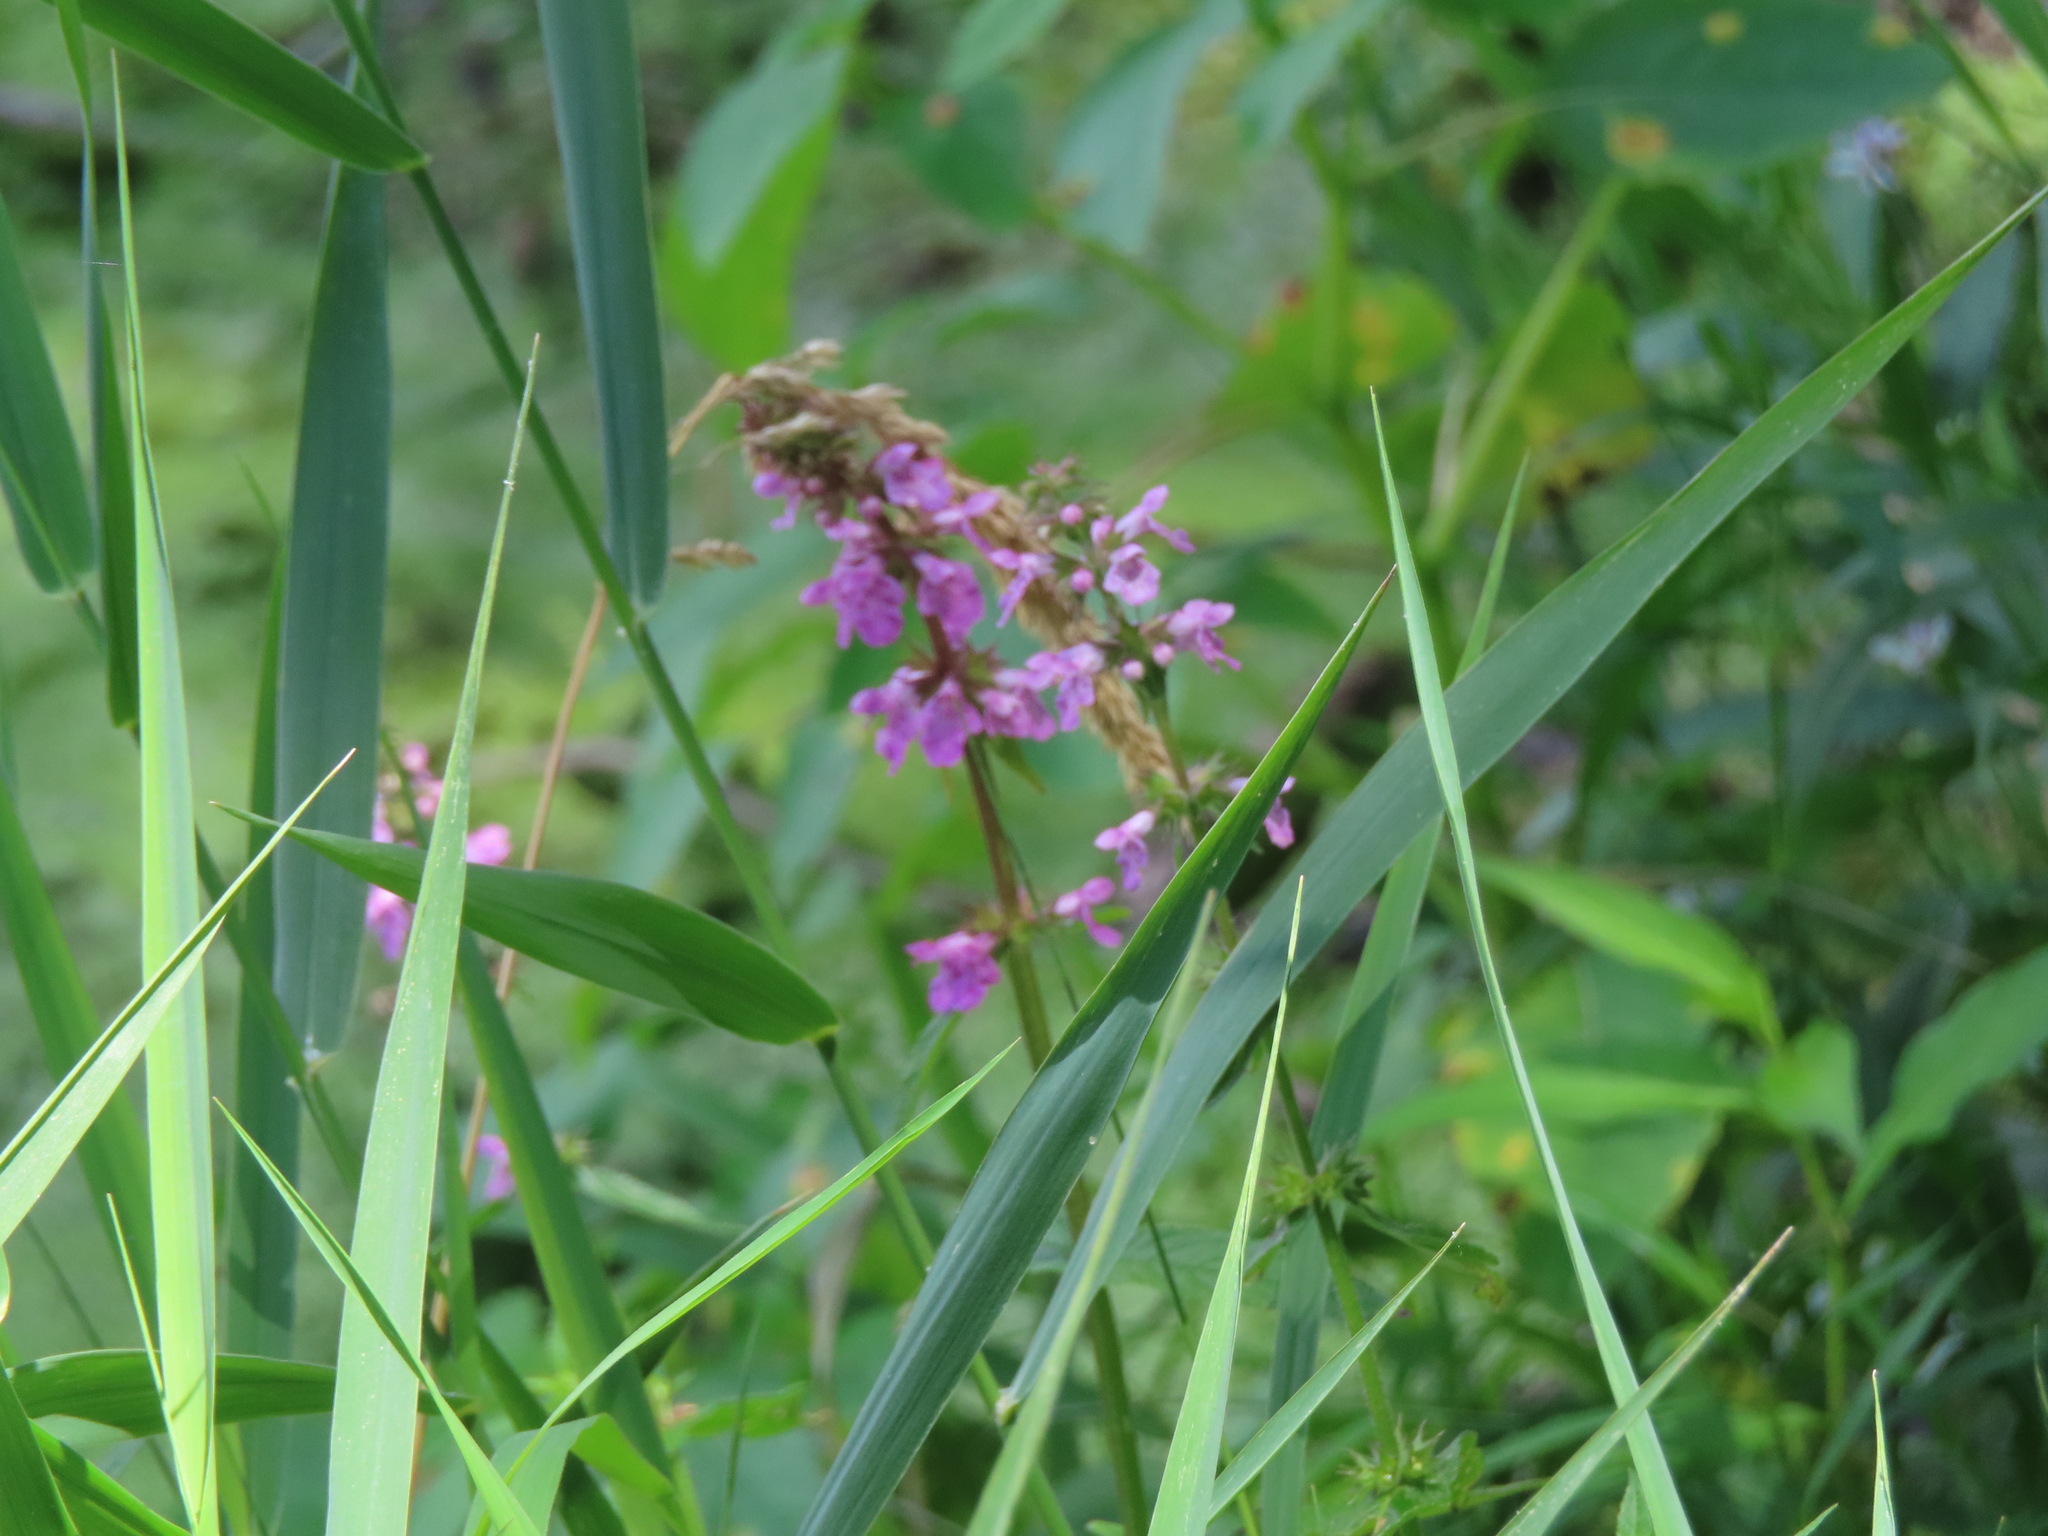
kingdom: Plantae
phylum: Tracheophyta
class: Magnoliopsida
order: Myrtales
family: Lythraceae
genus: Lythrum
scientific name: Lythrum salicaria
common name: Purple loosestrife
